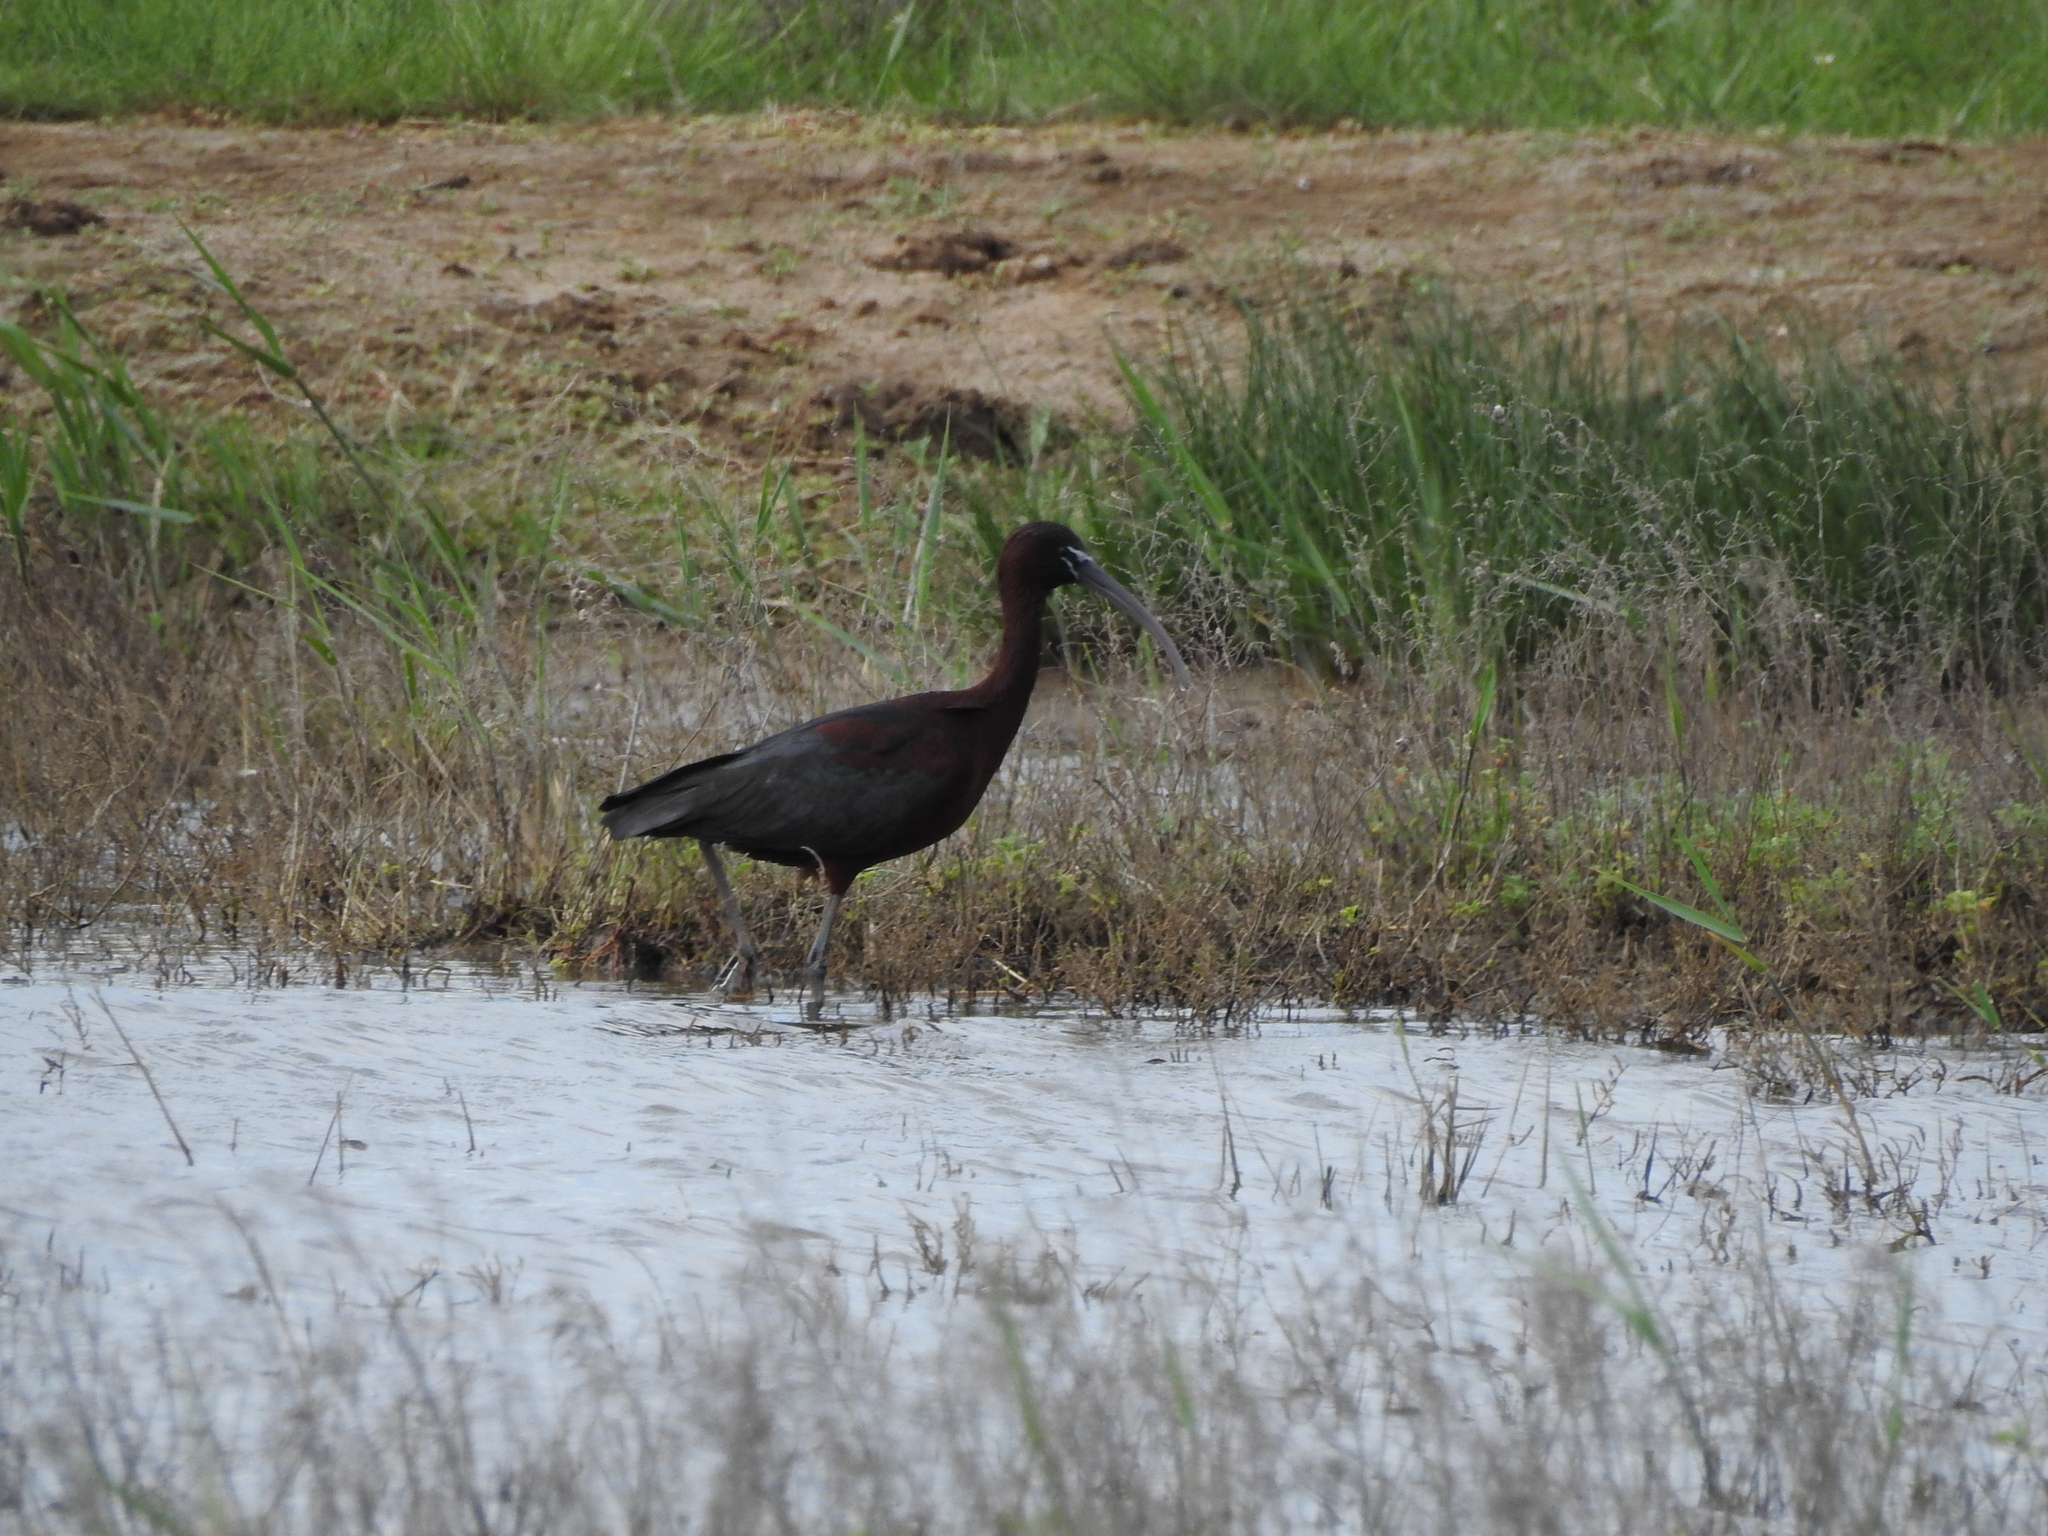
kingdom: Animalia
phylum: Chordata
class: Aves
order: Pelecaniformes
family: Threskiornithidae
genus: Plegadis
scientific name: Plegadis falcinellus
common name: Glossy ibis
